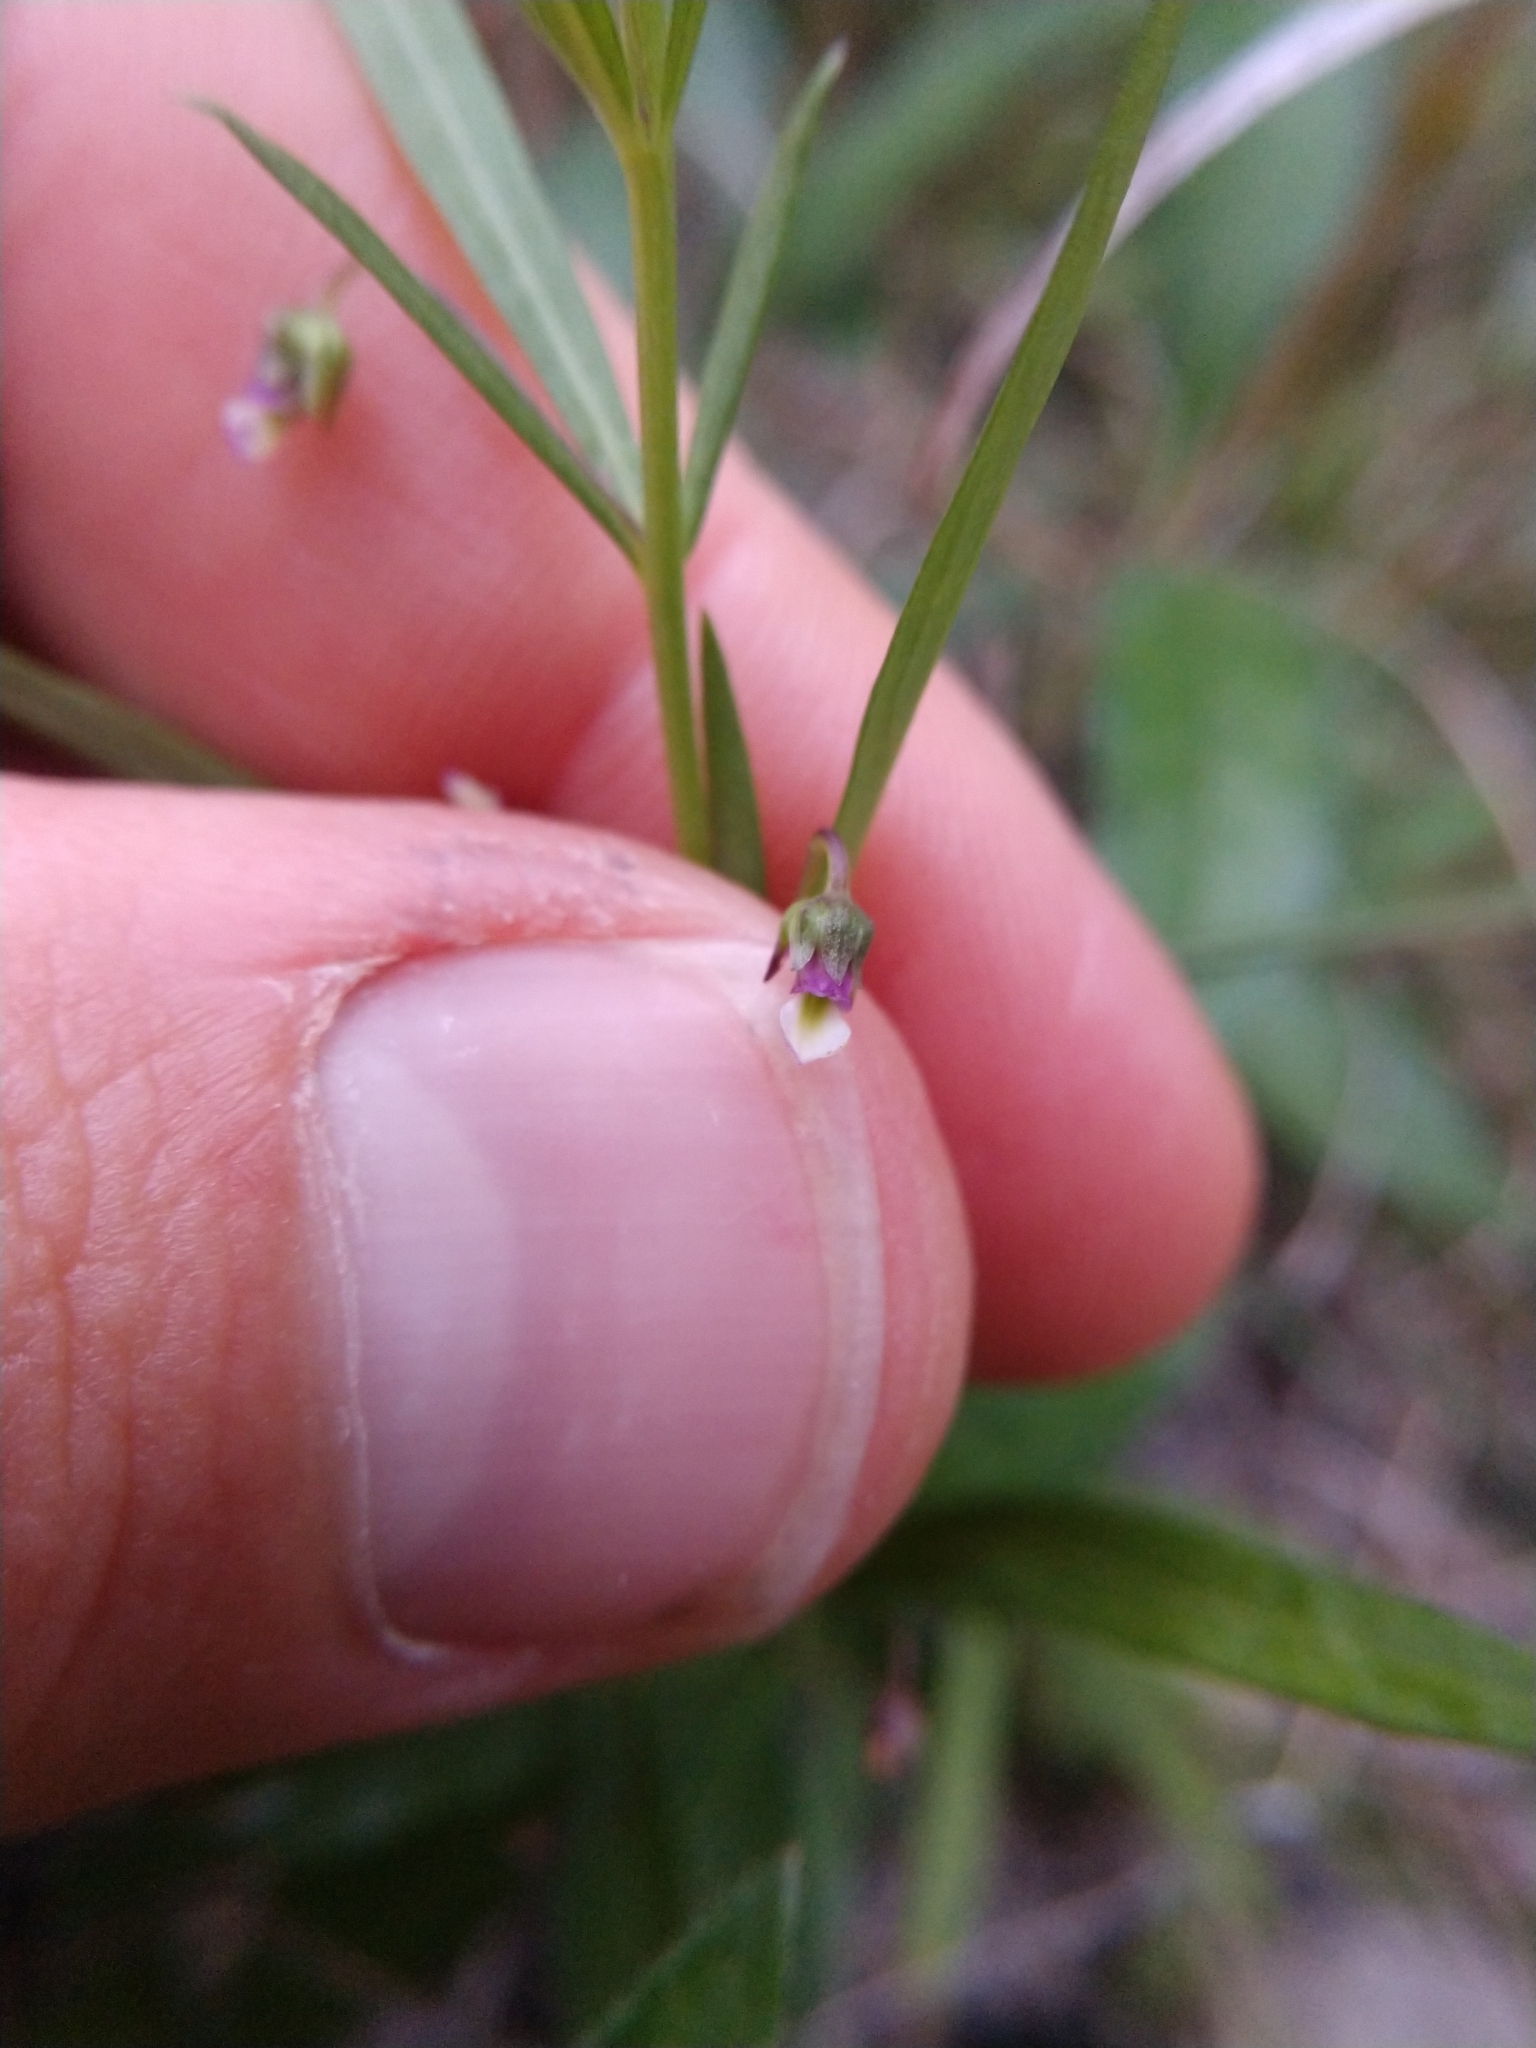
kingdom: Plantae
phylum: Tracheophyta
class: Magnoliopsida
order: Malpighiales
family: Violaceae
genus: Pombalia
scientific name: Pombalia verticillata
